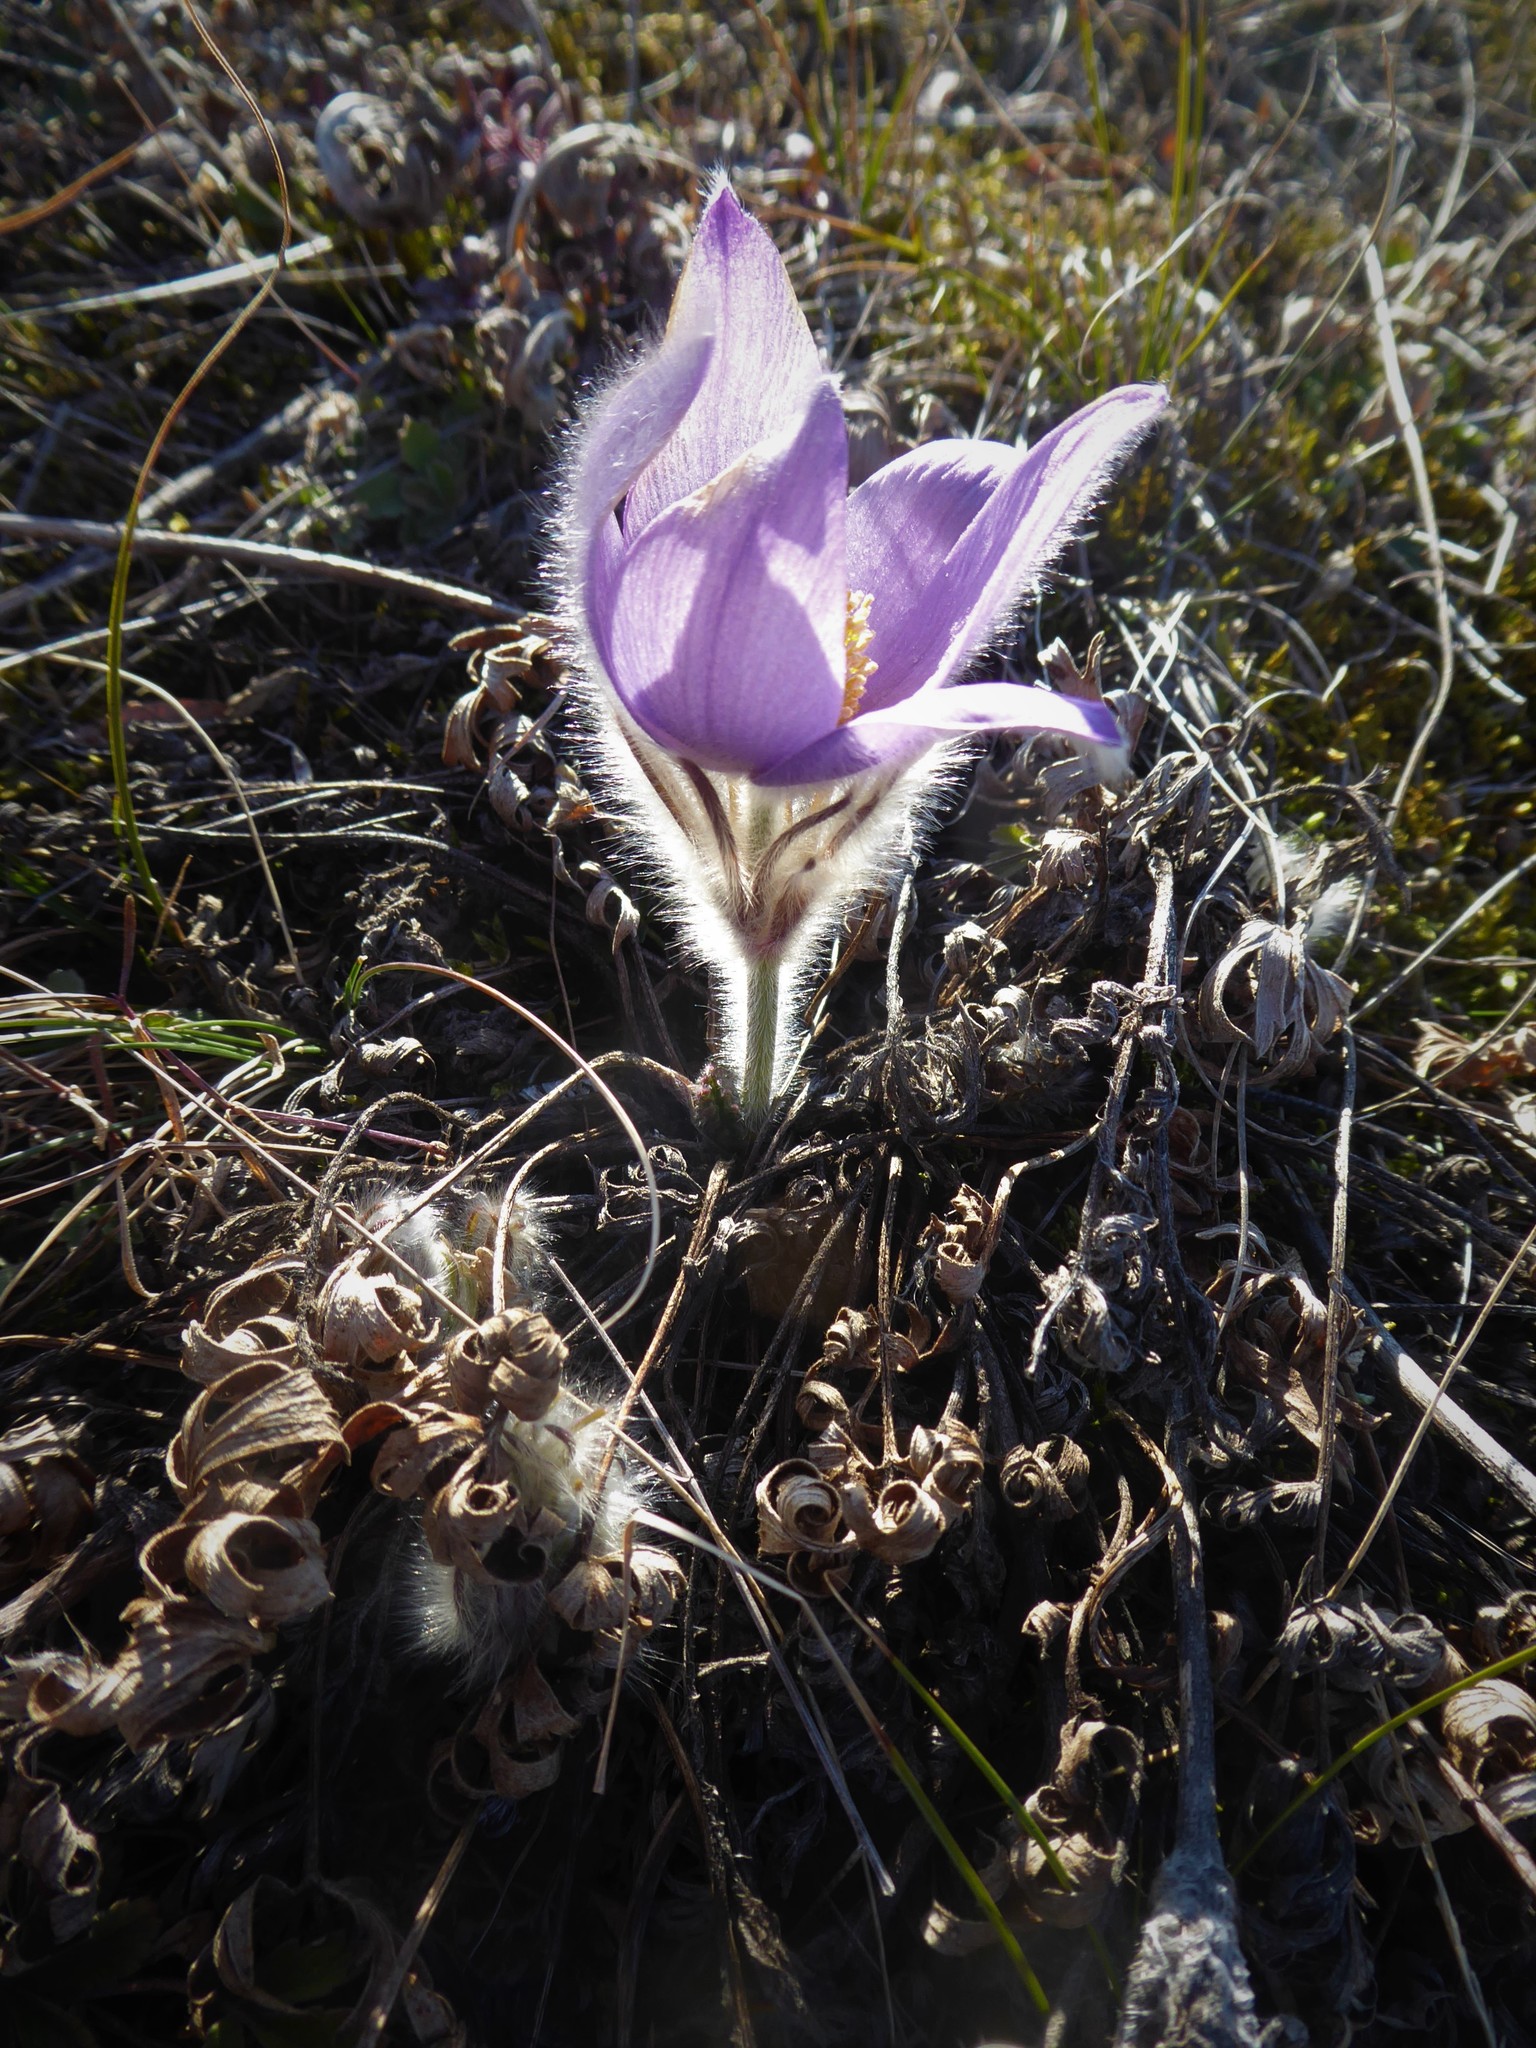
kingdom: Plantae
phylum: Tracheophyta
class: Magnoliopsida
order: Ranunculales
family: Ranunculaceae
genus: Pulsatilla
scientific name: Pulsatilla grandis
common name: Greater pasque flower
